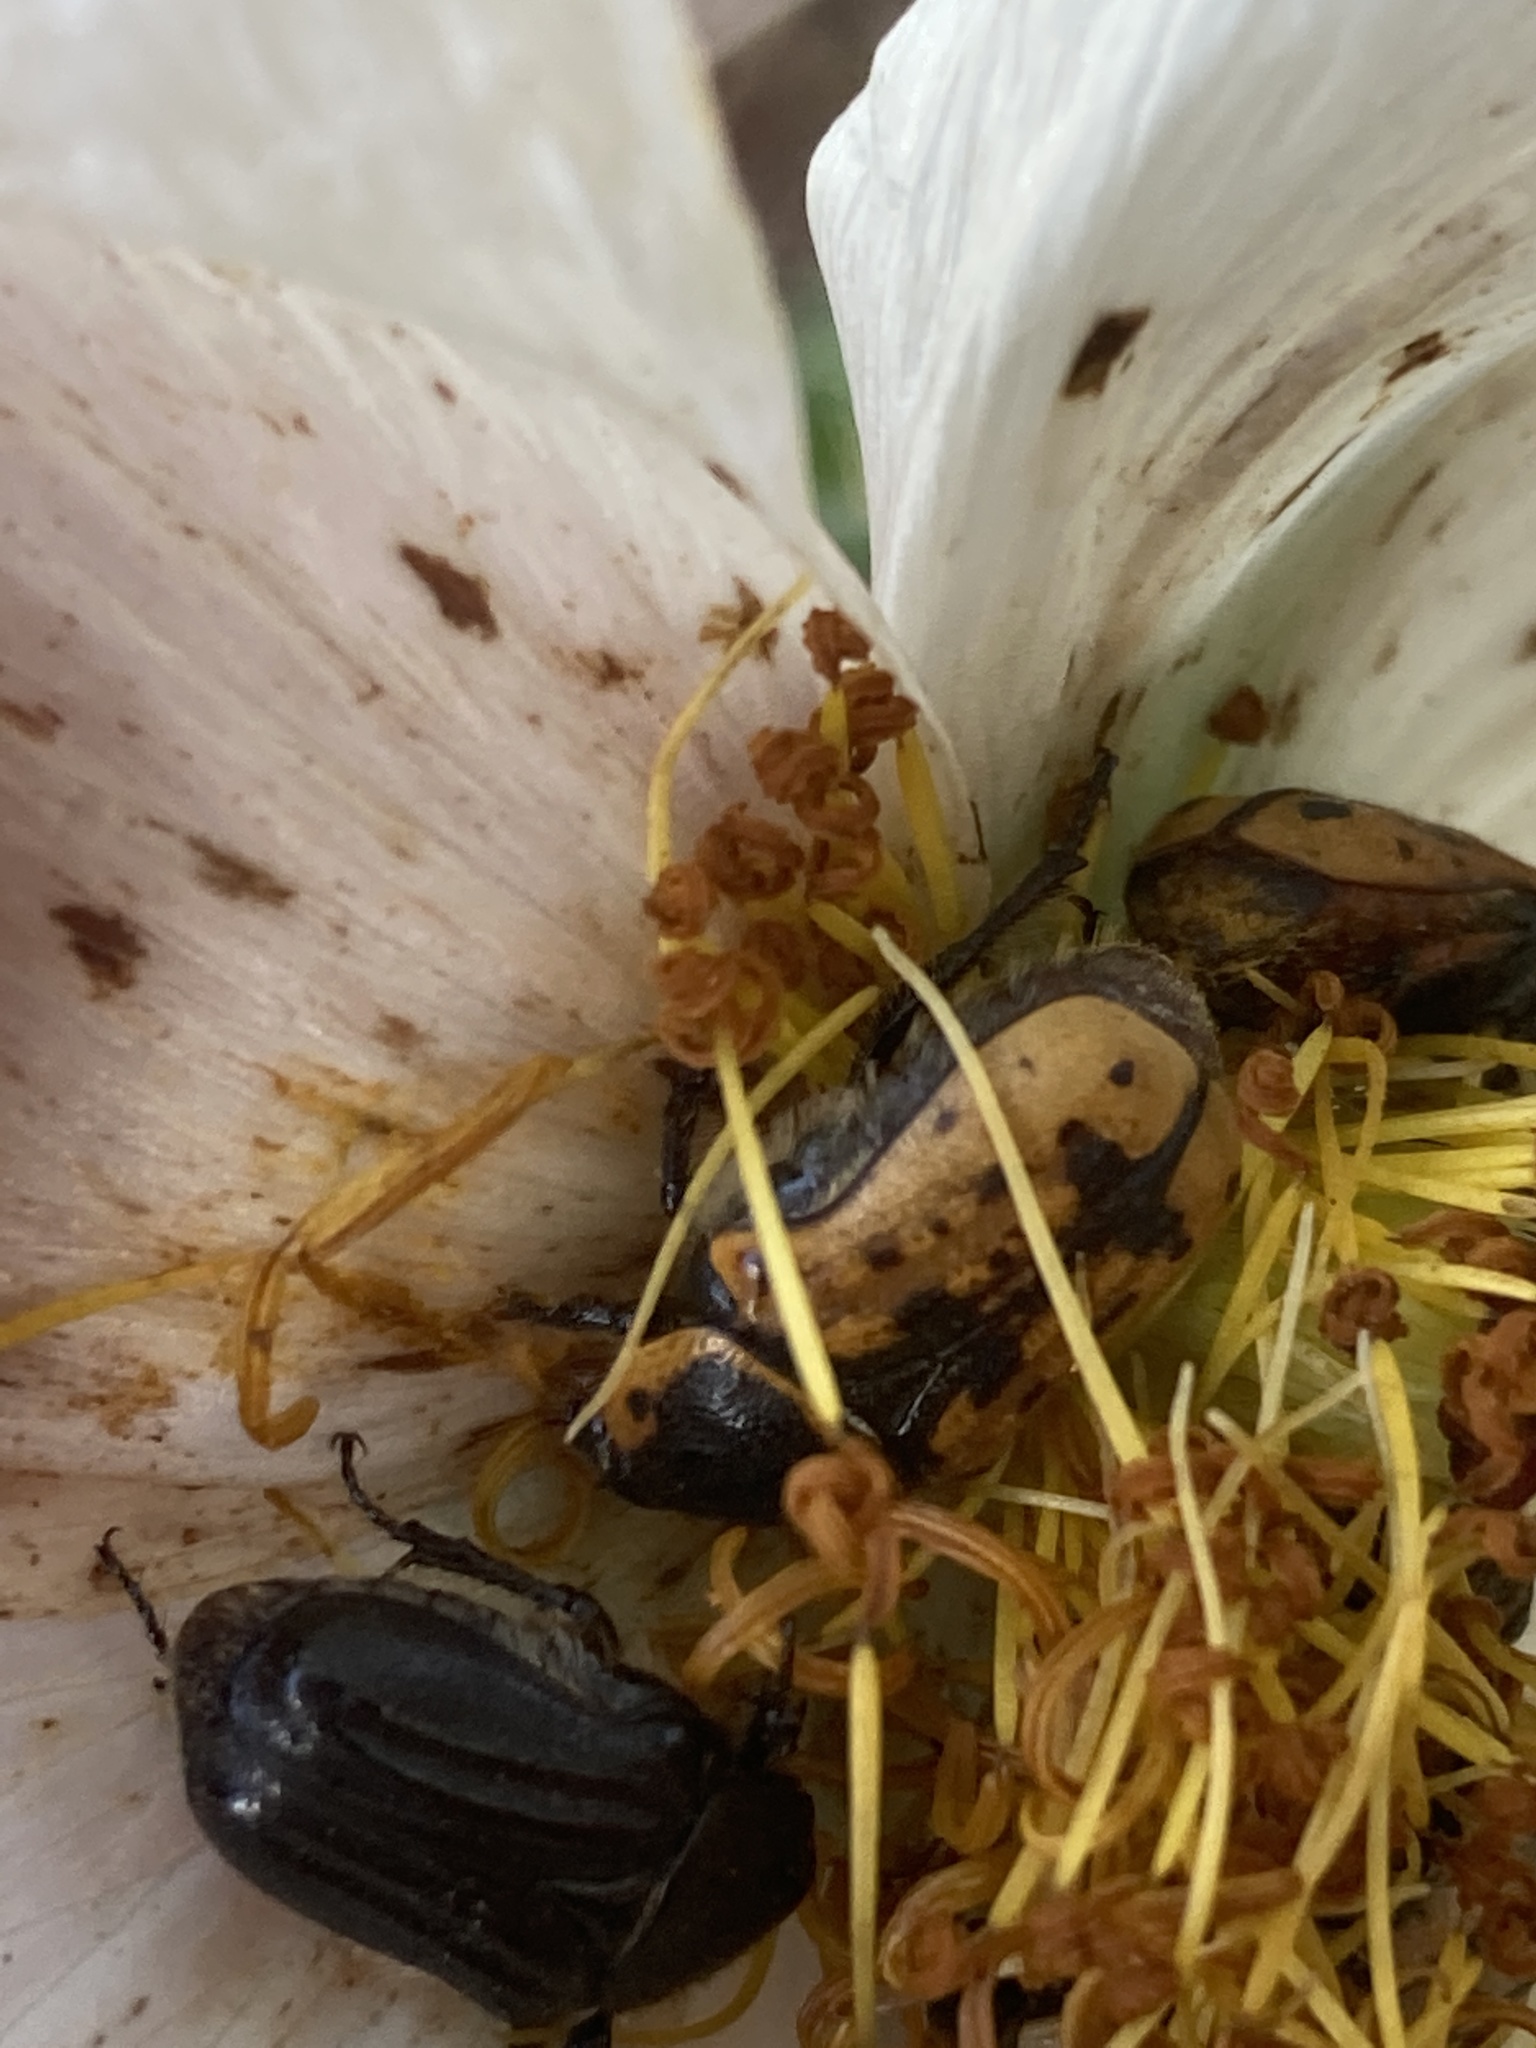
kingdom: Animalia
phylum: Arthropoda
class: Insecta
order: Coleoptera
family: Scarabaeidae
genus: Euphoria
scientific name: Euphoria kernii
